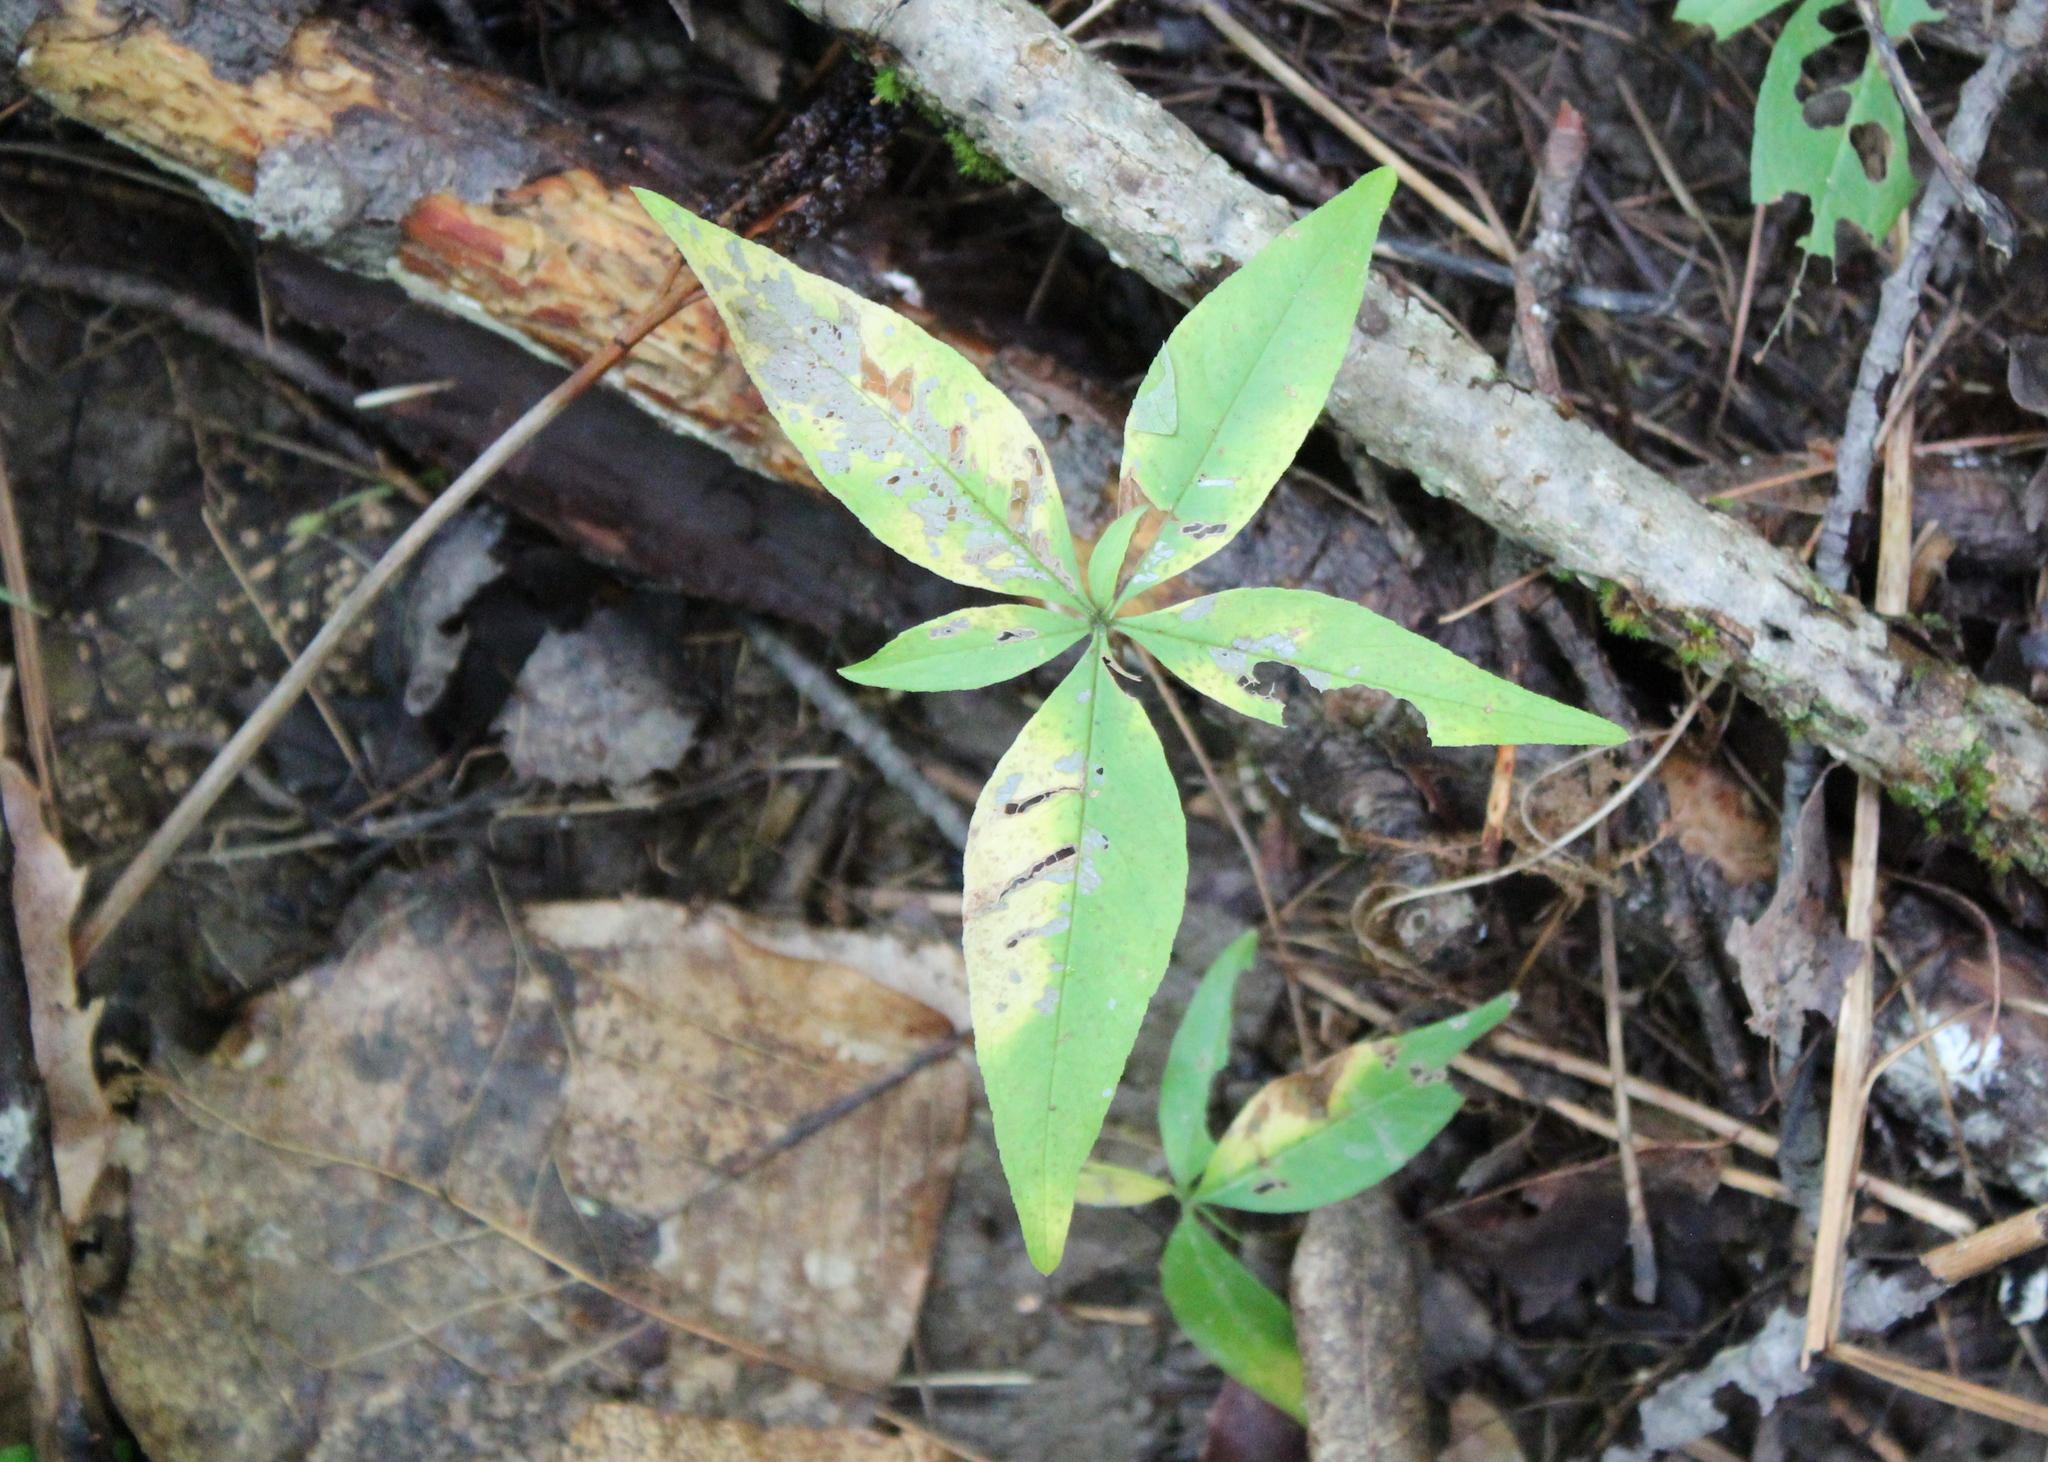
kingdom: Plantae
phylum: Tracheophyta
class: Magnoliopsida
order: Ericales
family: Primulaceae
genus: Lysimachia
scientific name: Lysimachia borealis
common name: American starflower
